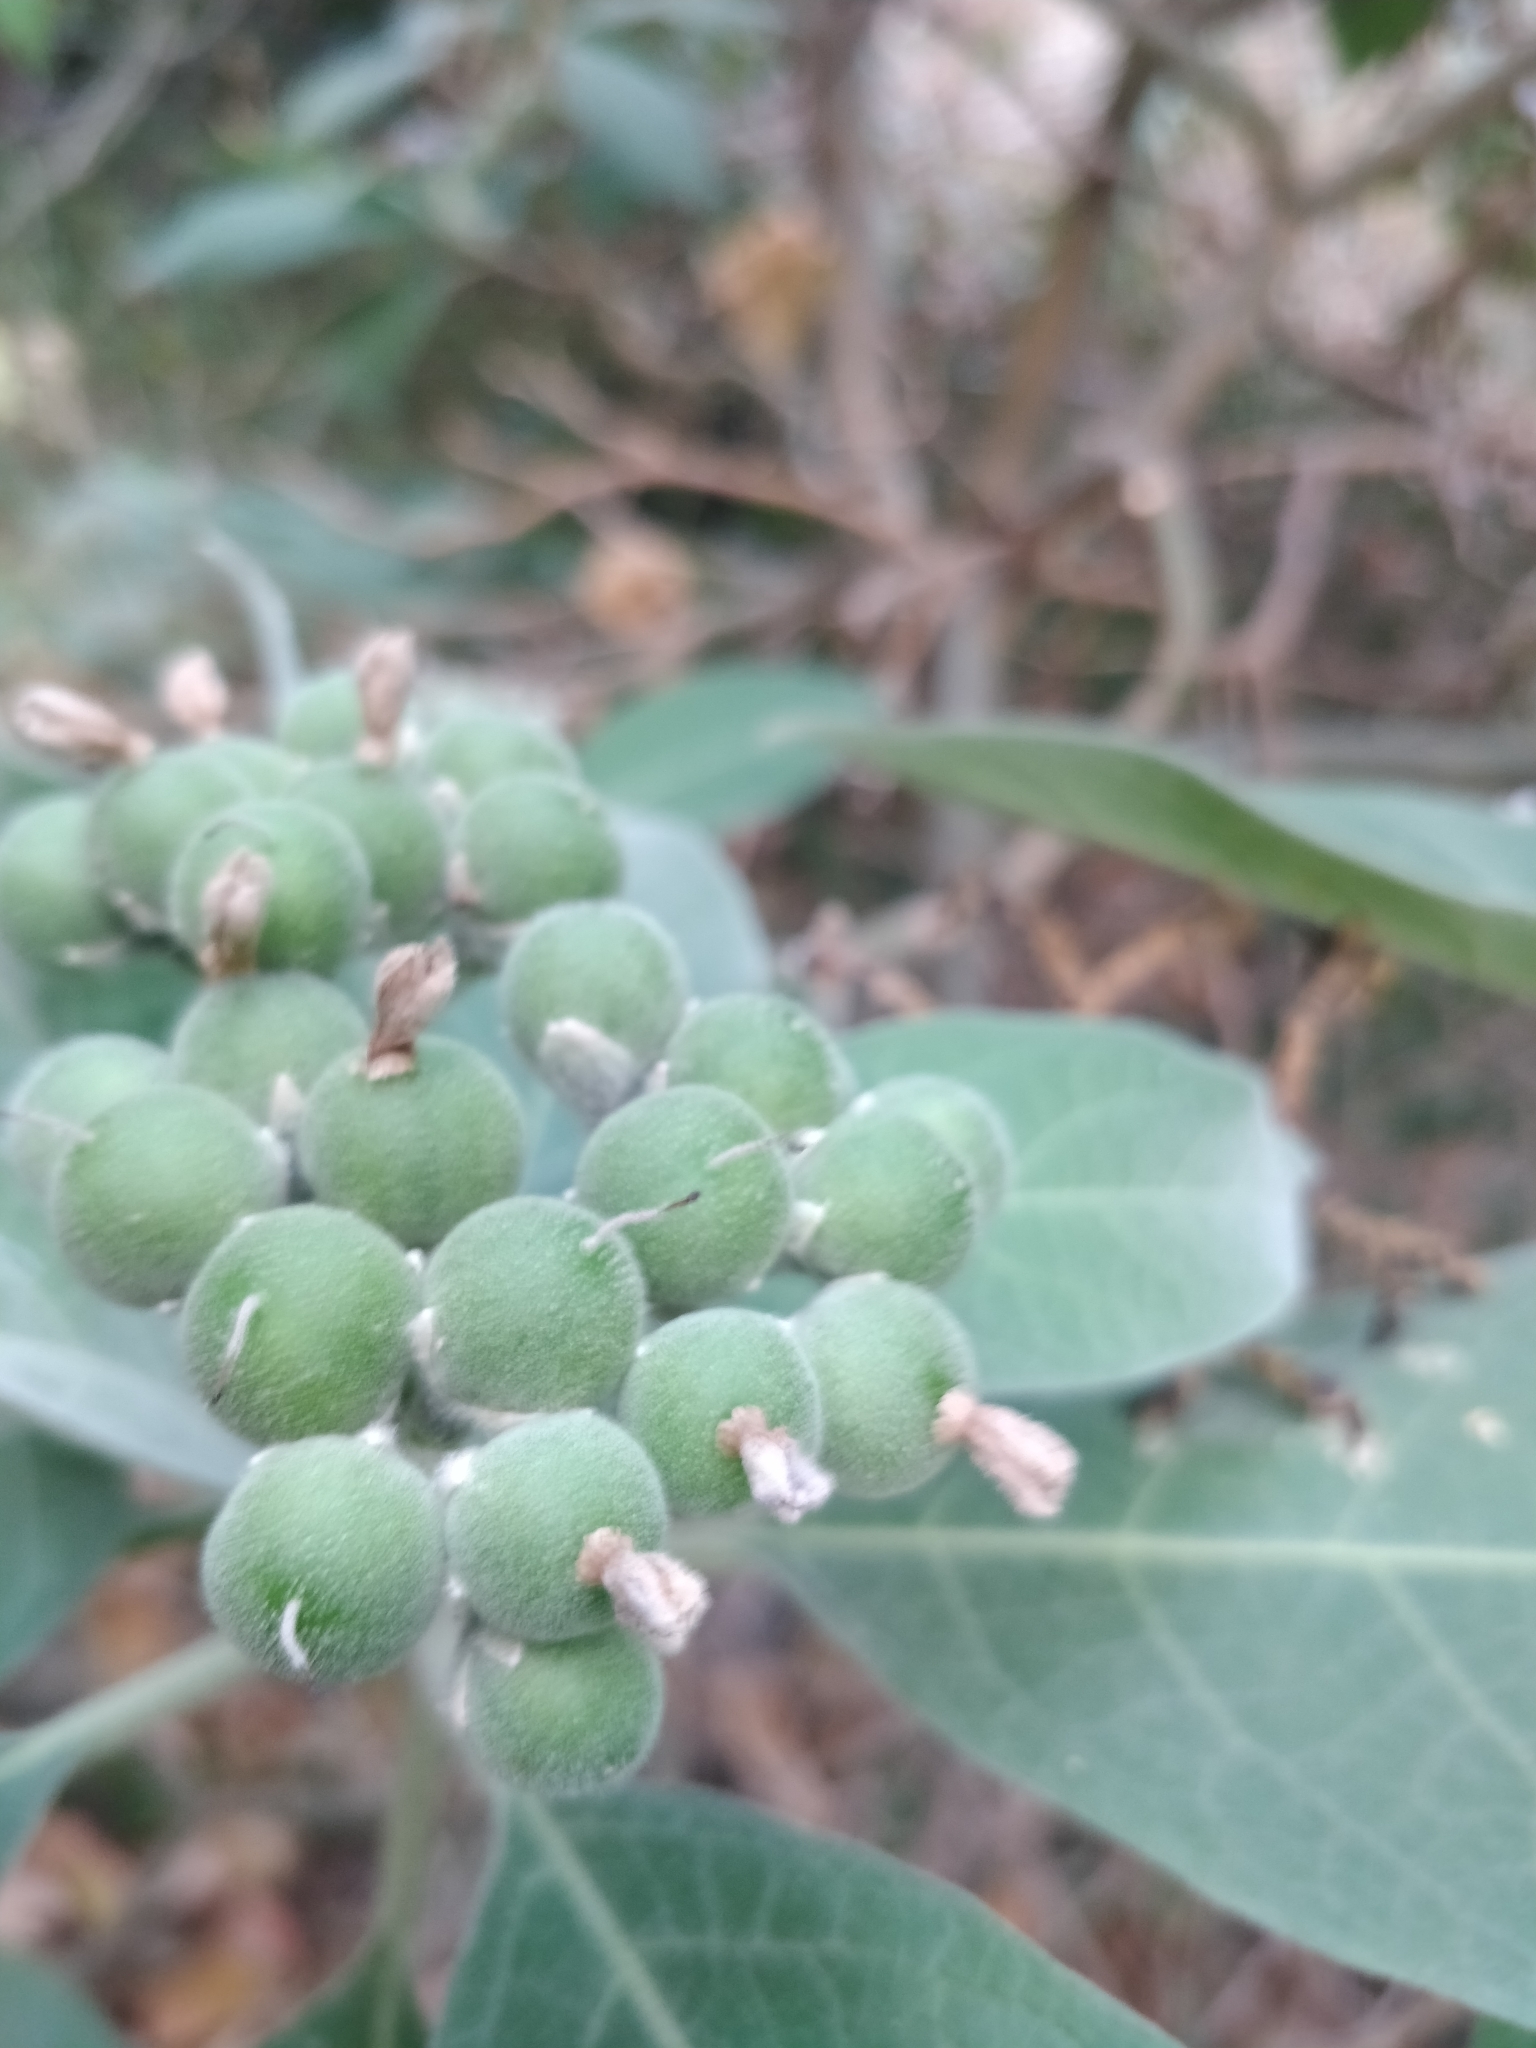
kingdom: Plantae
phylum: Tracheophyta
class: Magnoliopsida
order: Solanales
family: Solanaceae
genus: Solanum
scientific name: Solanum mauritianum
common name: Earleaf nightshade
